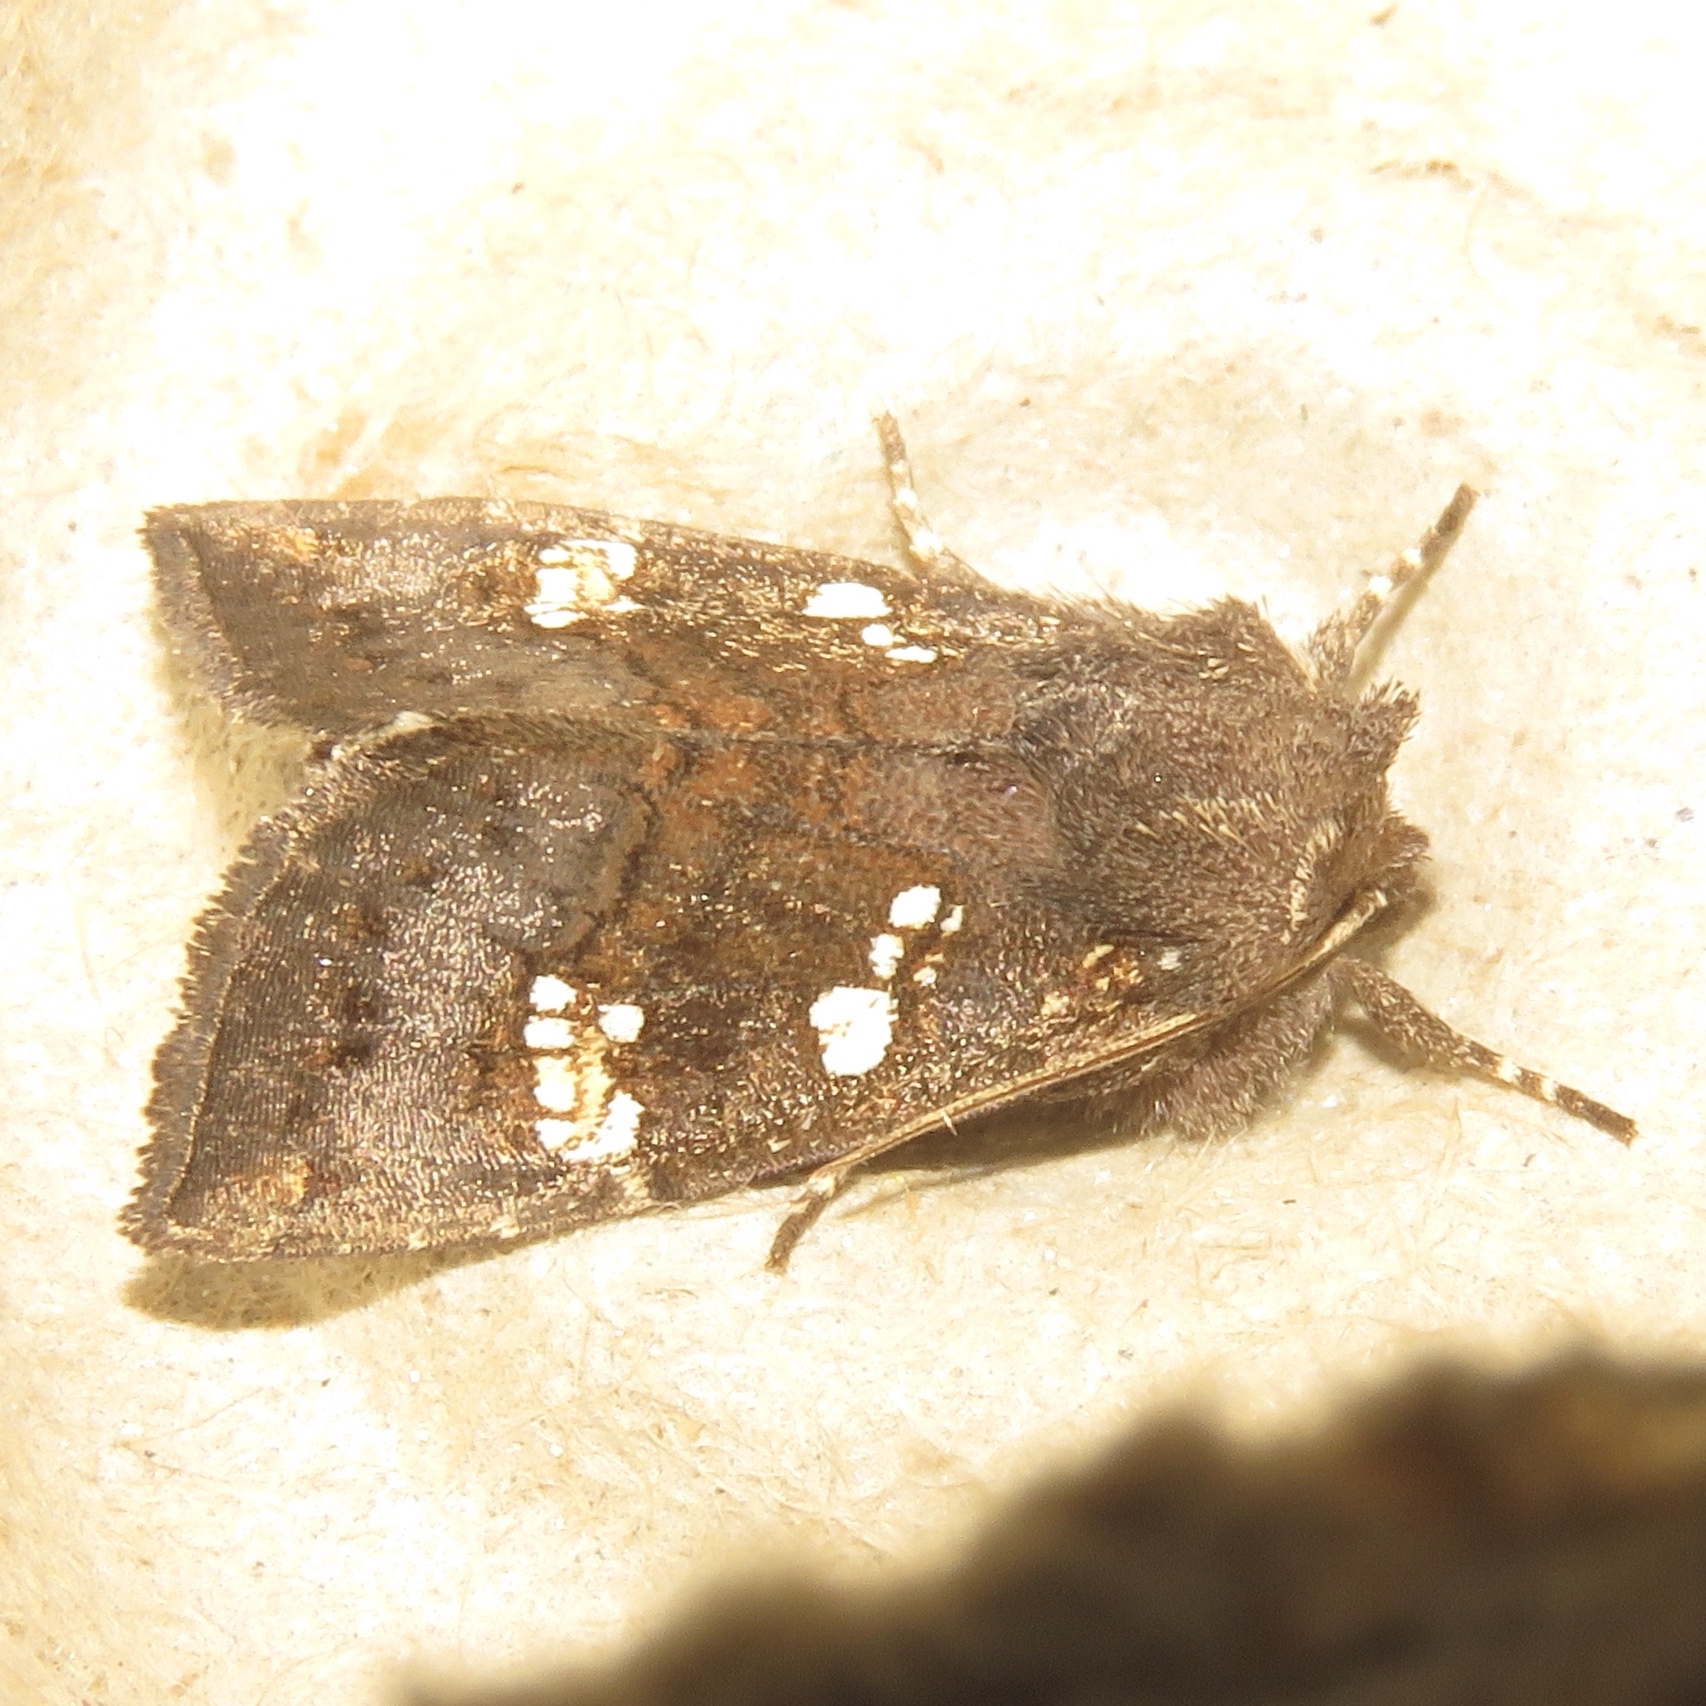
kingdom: Animalia
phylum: Arthropoda
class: Insecta
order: Lepidoptera
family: Noctuidae
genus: Papaipema
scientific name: Papaipema unimoda
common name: Meadow rue borer moth
